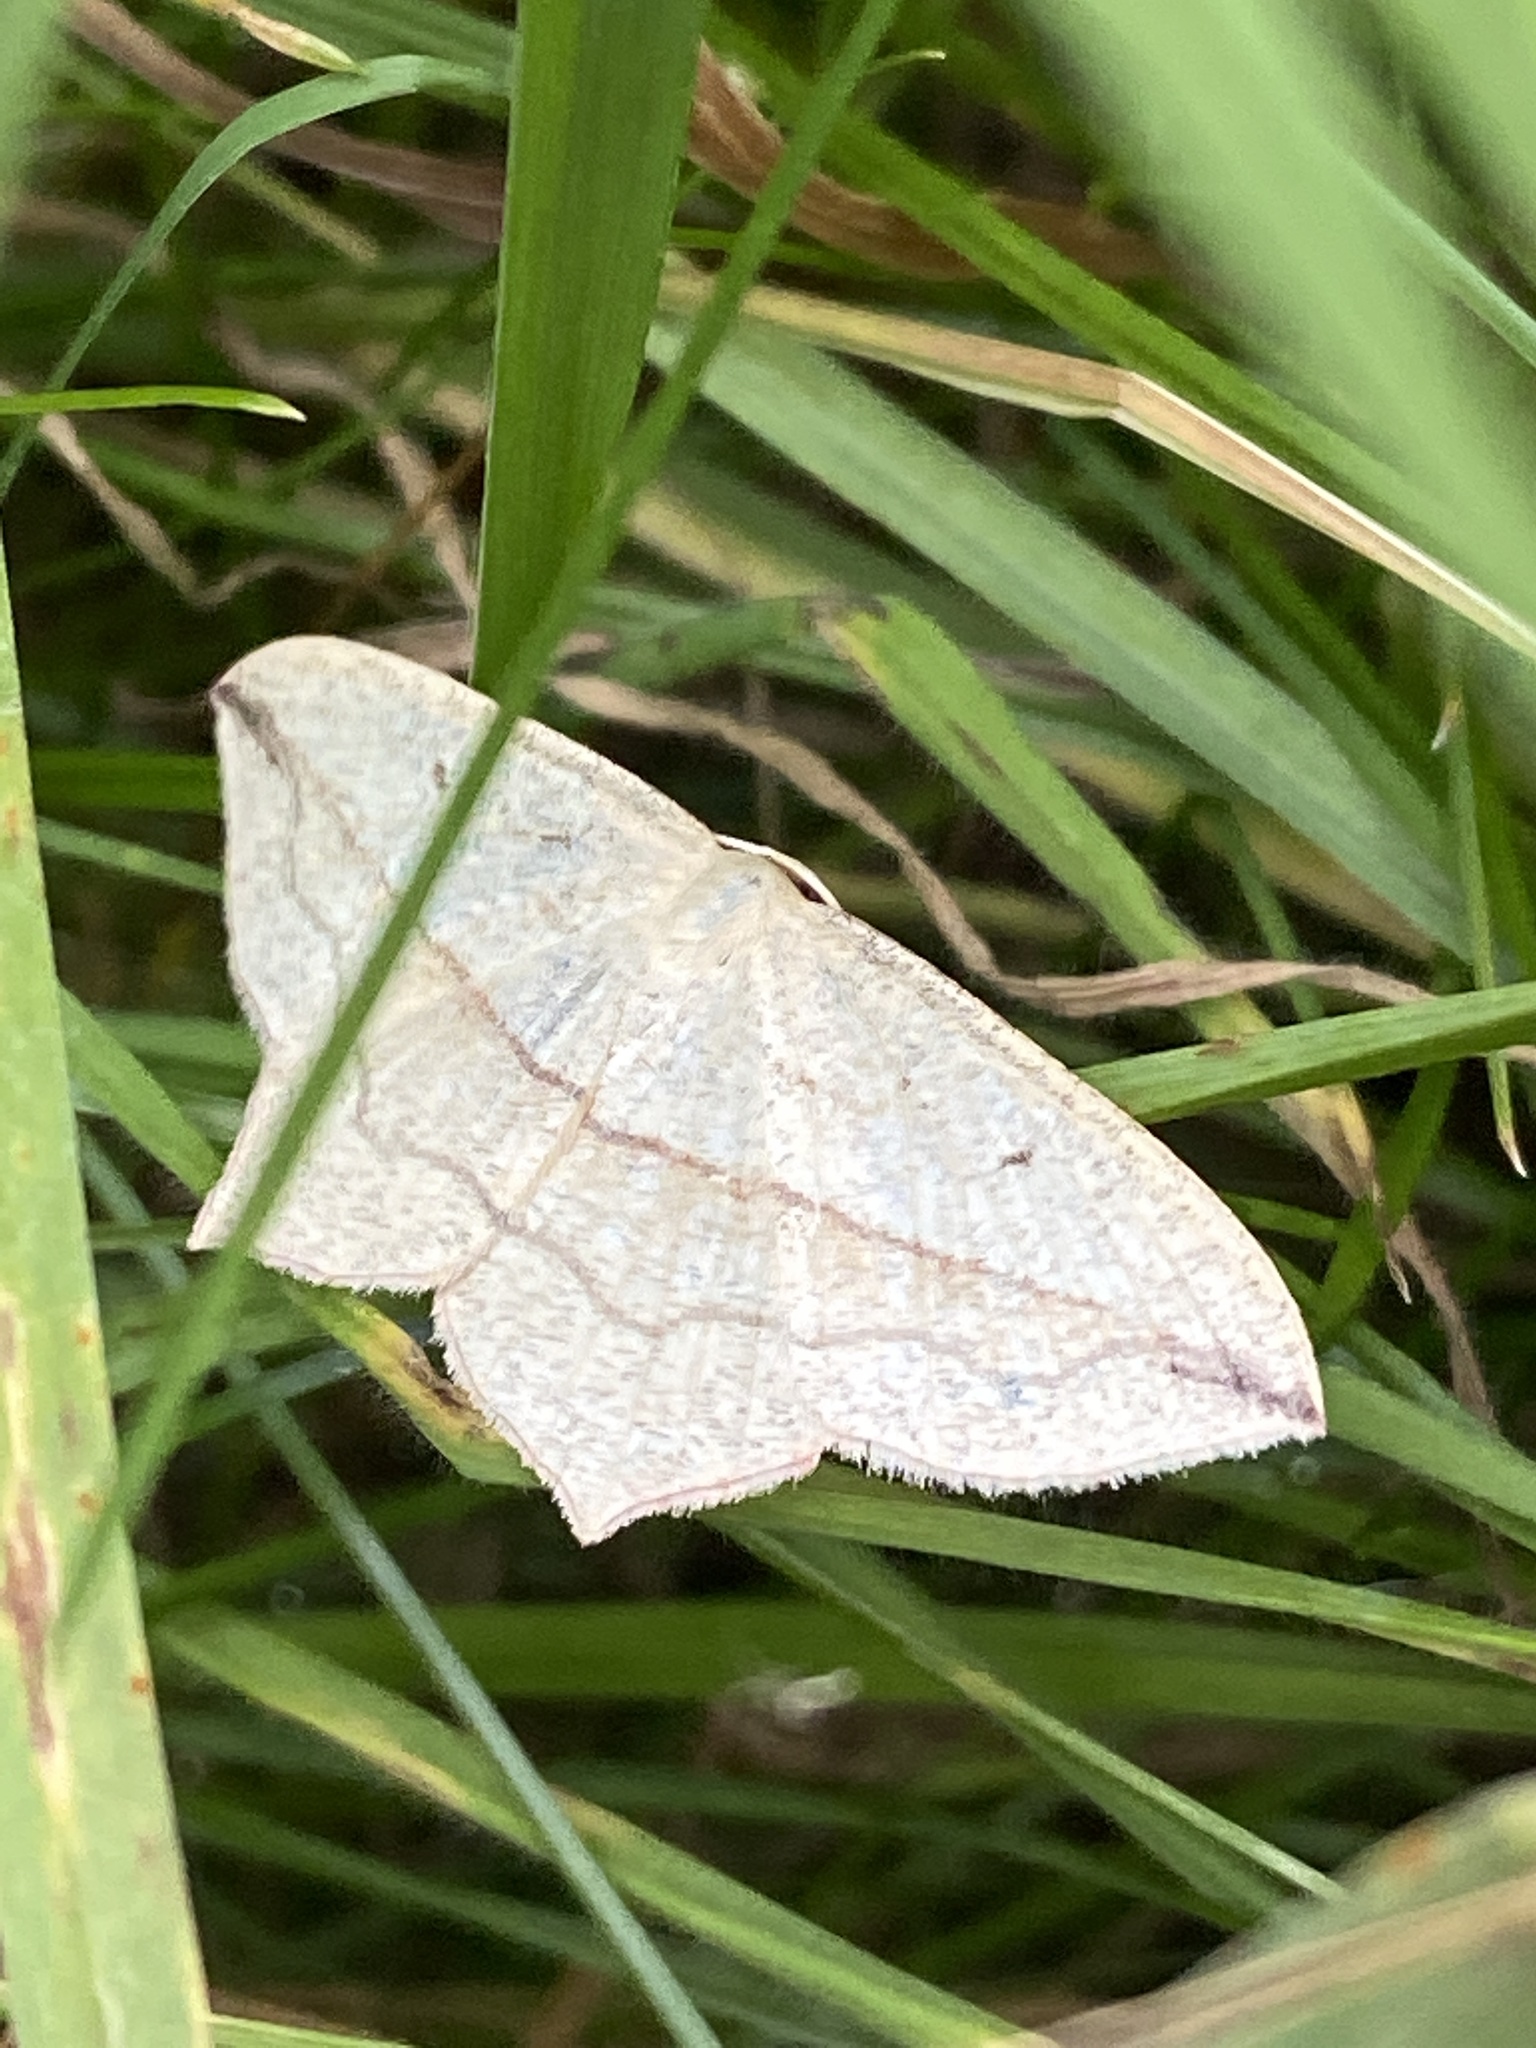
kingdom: Animalia
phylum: Arthropoda
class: Insecta
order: Lepidoptera
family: Geometridae
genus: Timandra
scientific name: Timandra comae
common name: Blood-vein
